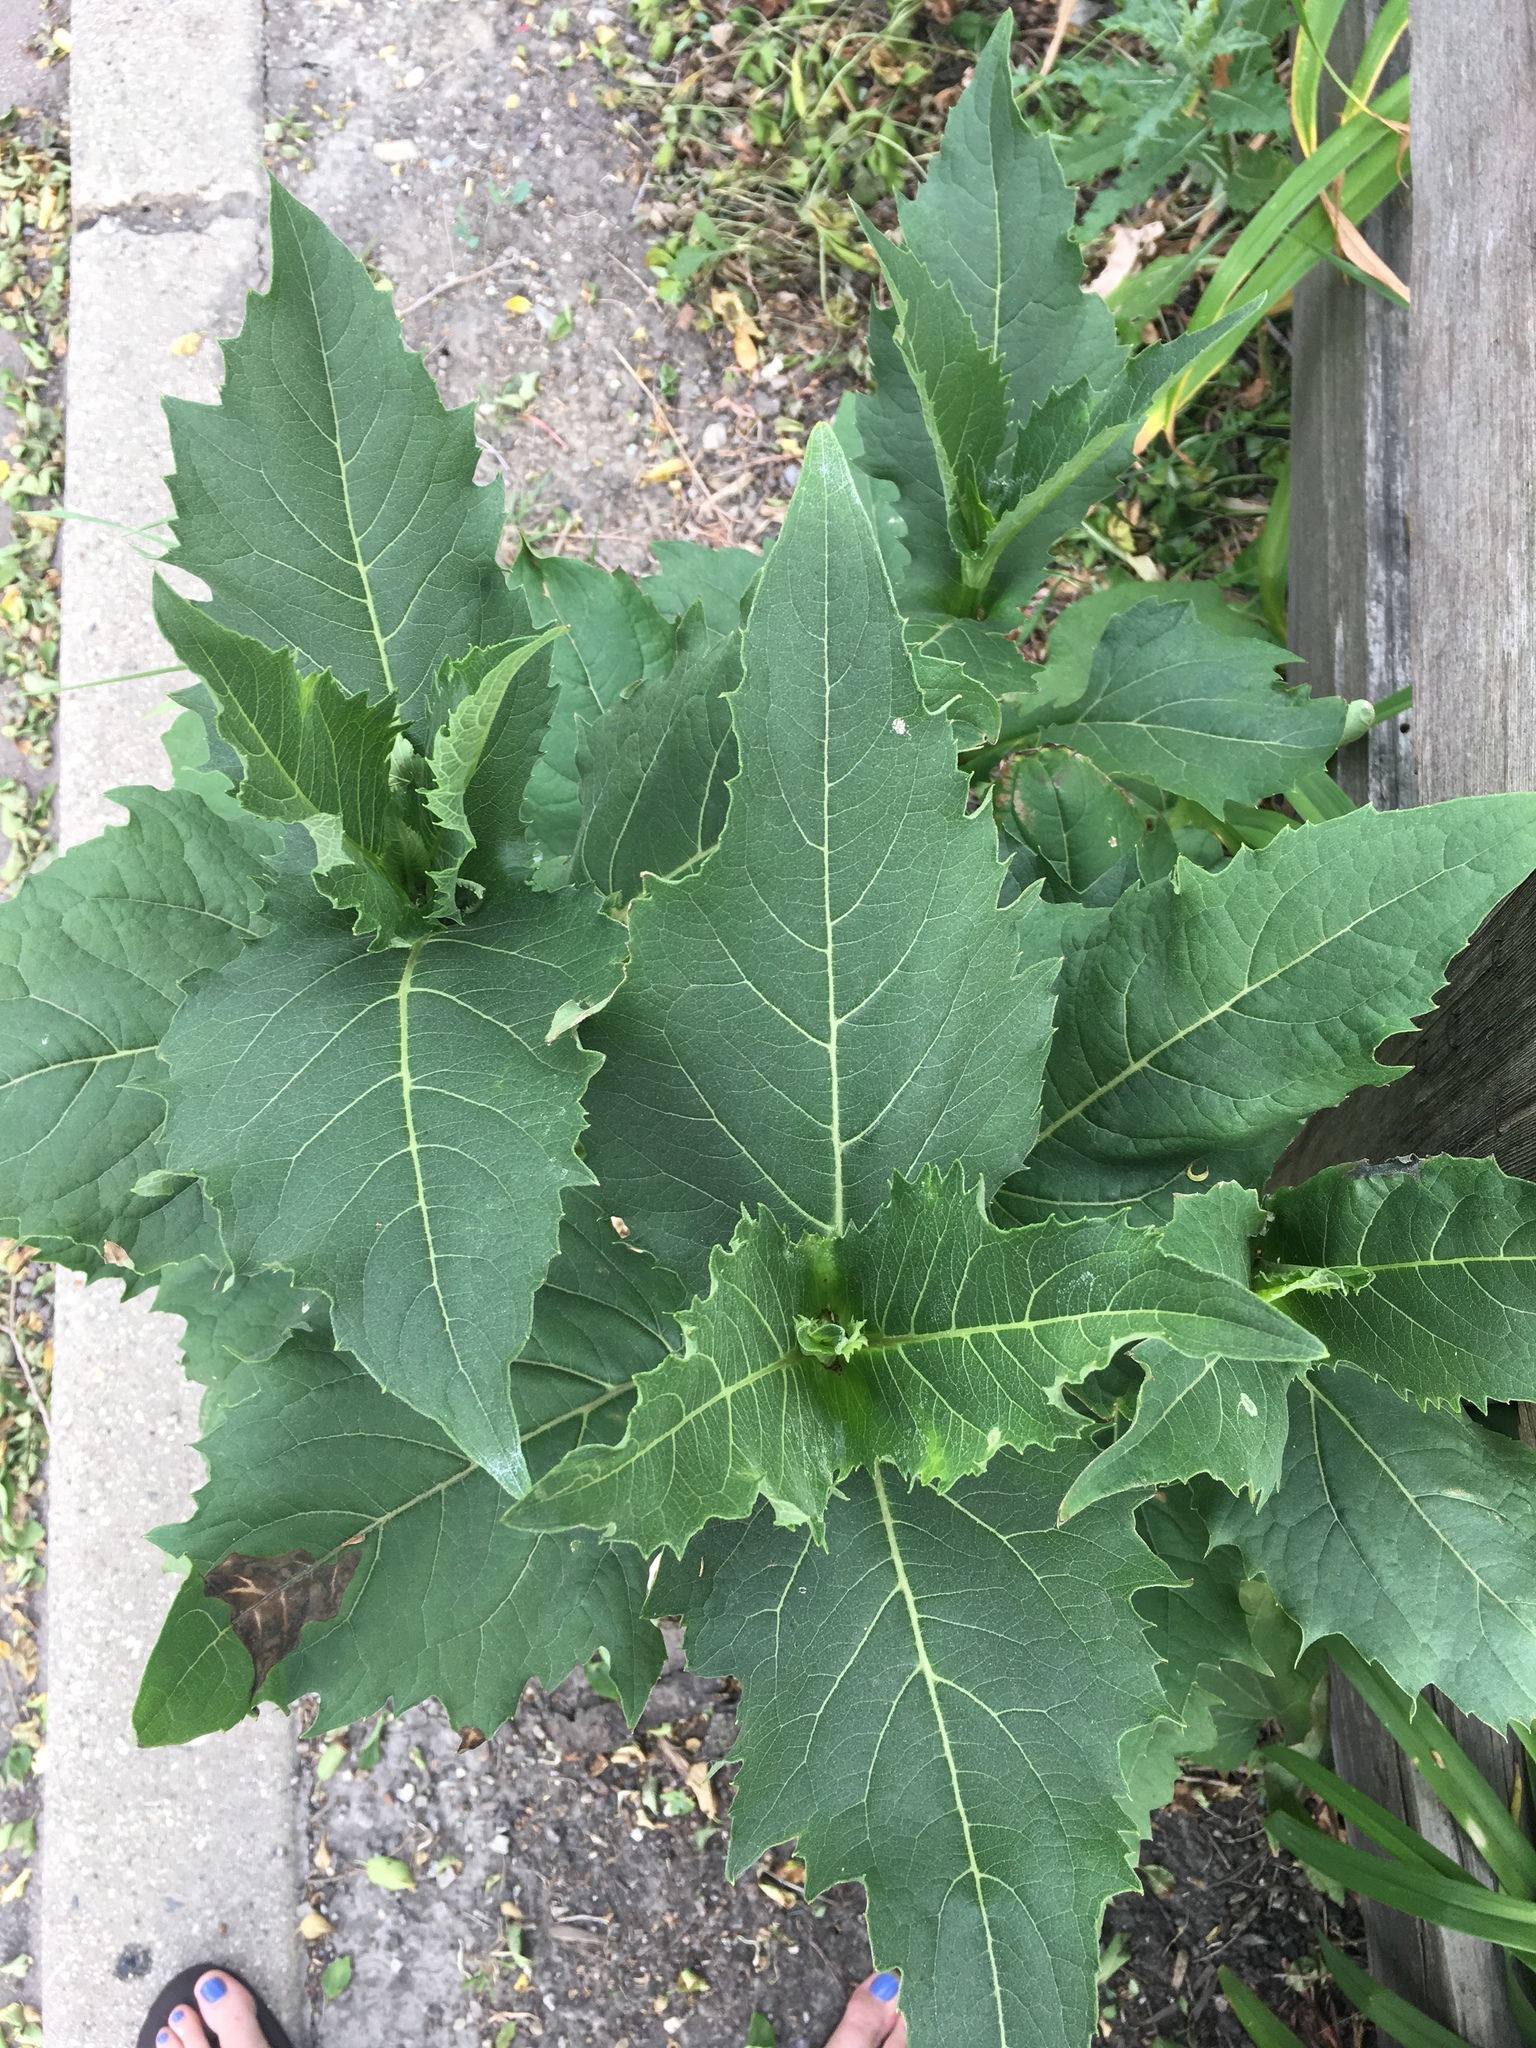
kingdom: Plantae
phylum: Tracheophyta
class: Magnoliopsida
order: Asterales
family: Asteraceae
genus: Silphium
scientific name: Silphium perfoliatum
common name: Cup-plant
